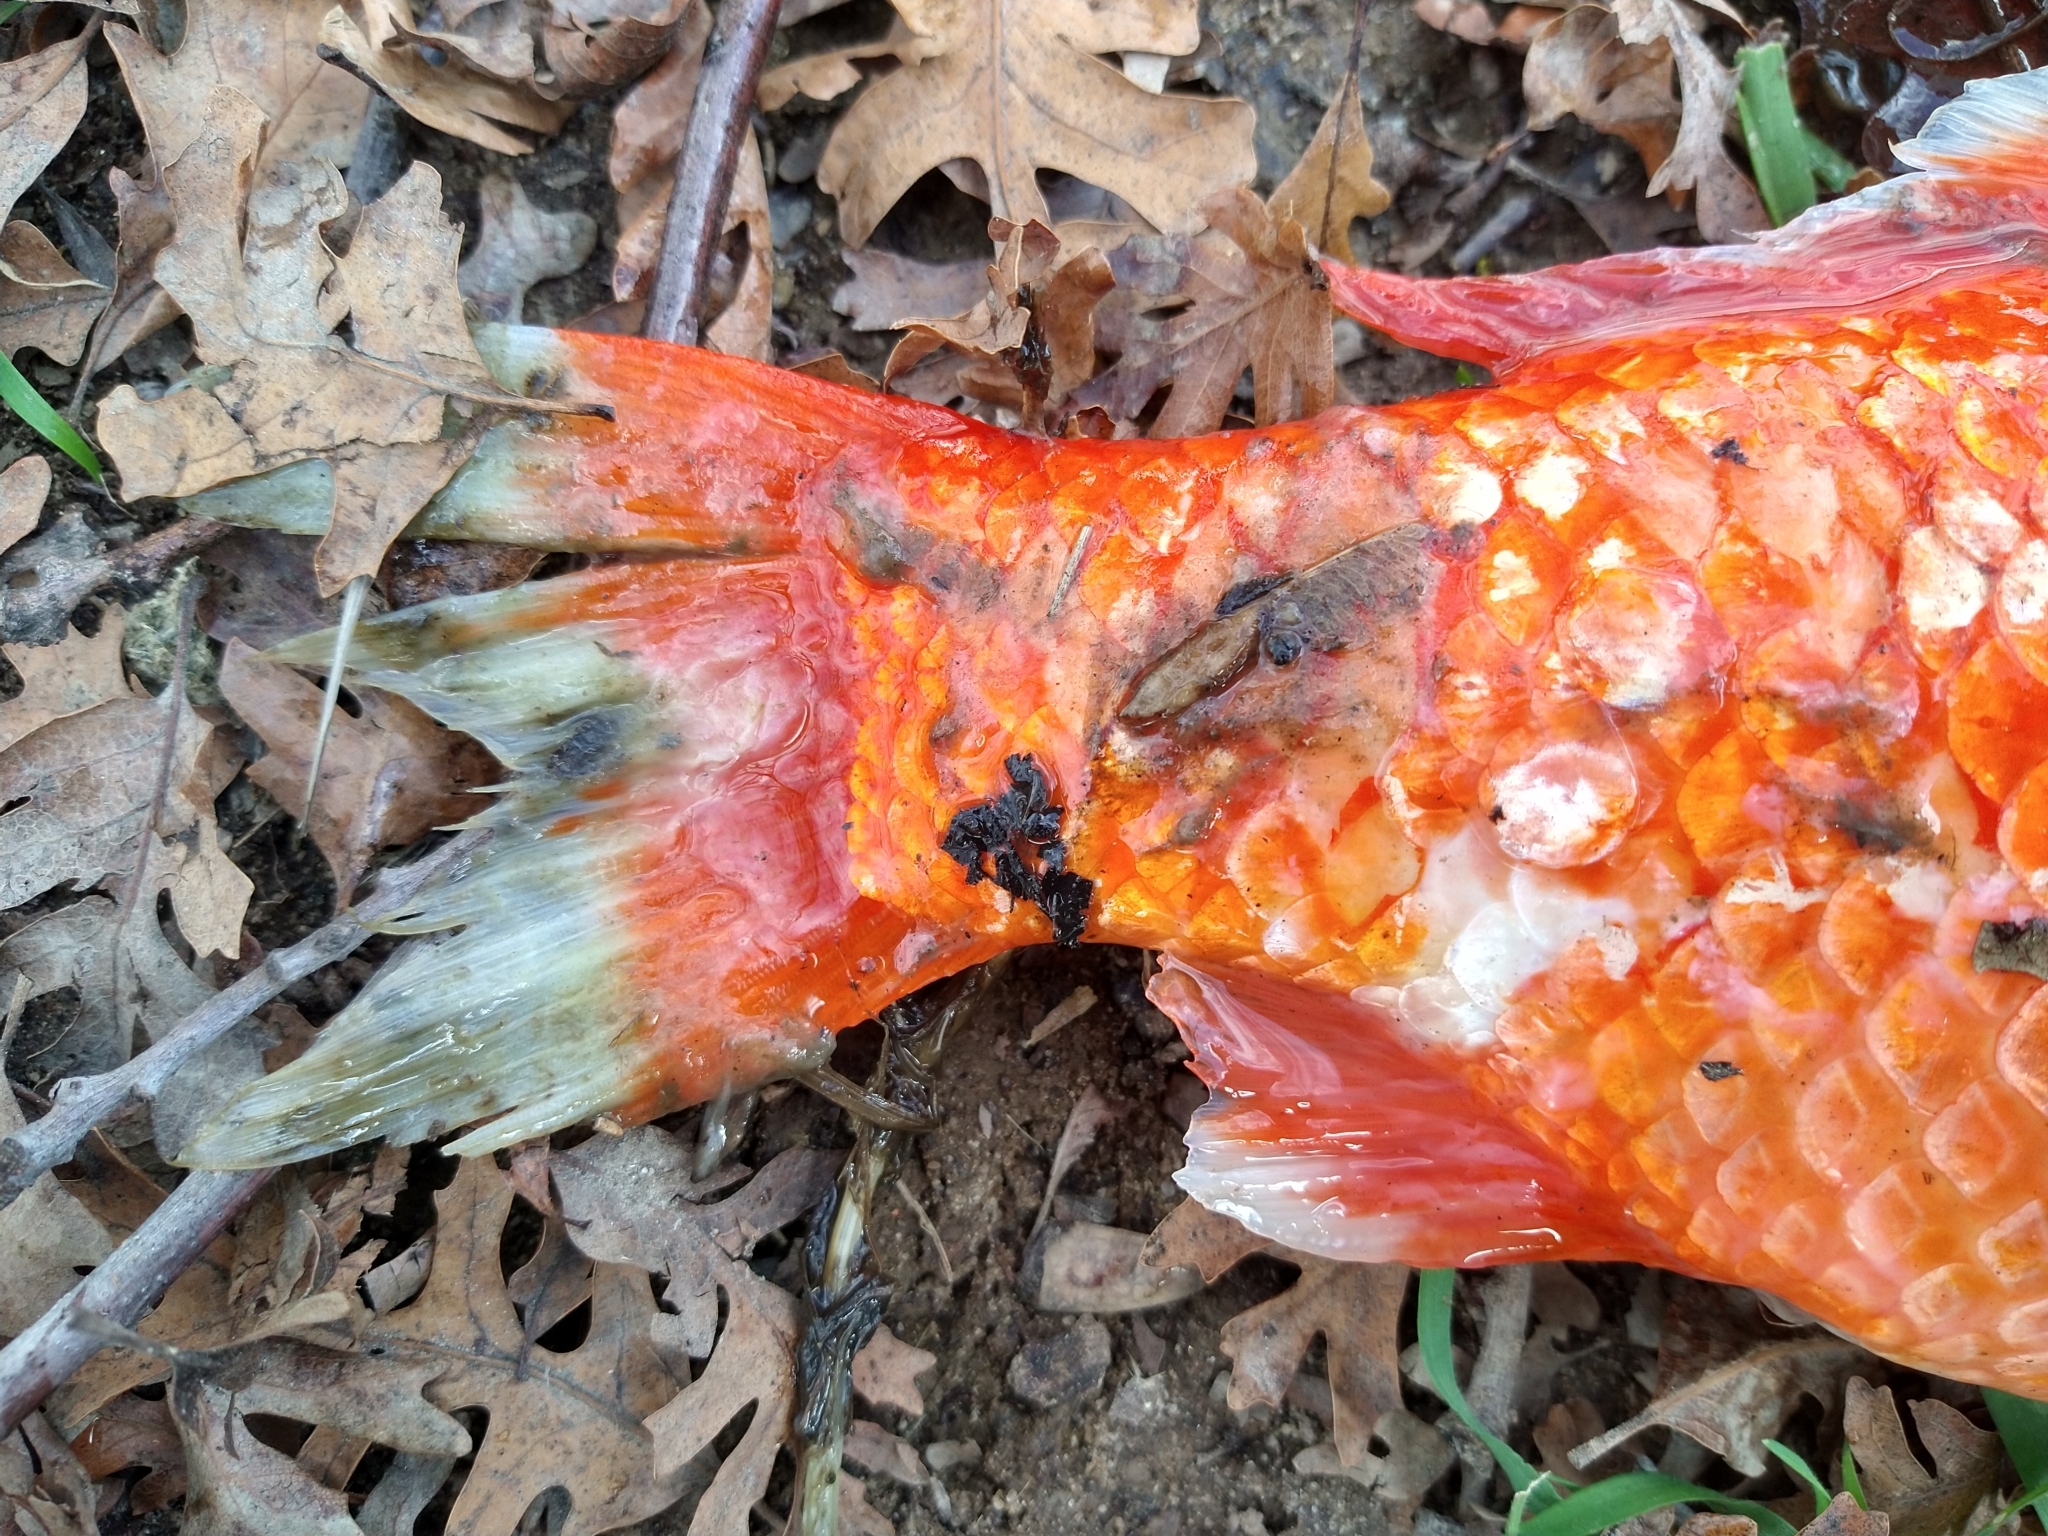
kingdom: Animalia
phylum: Chordata
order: Cypriniformes
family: Cyprinidae
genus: Carassius
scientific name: Carassius auratus
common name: Goldfish
